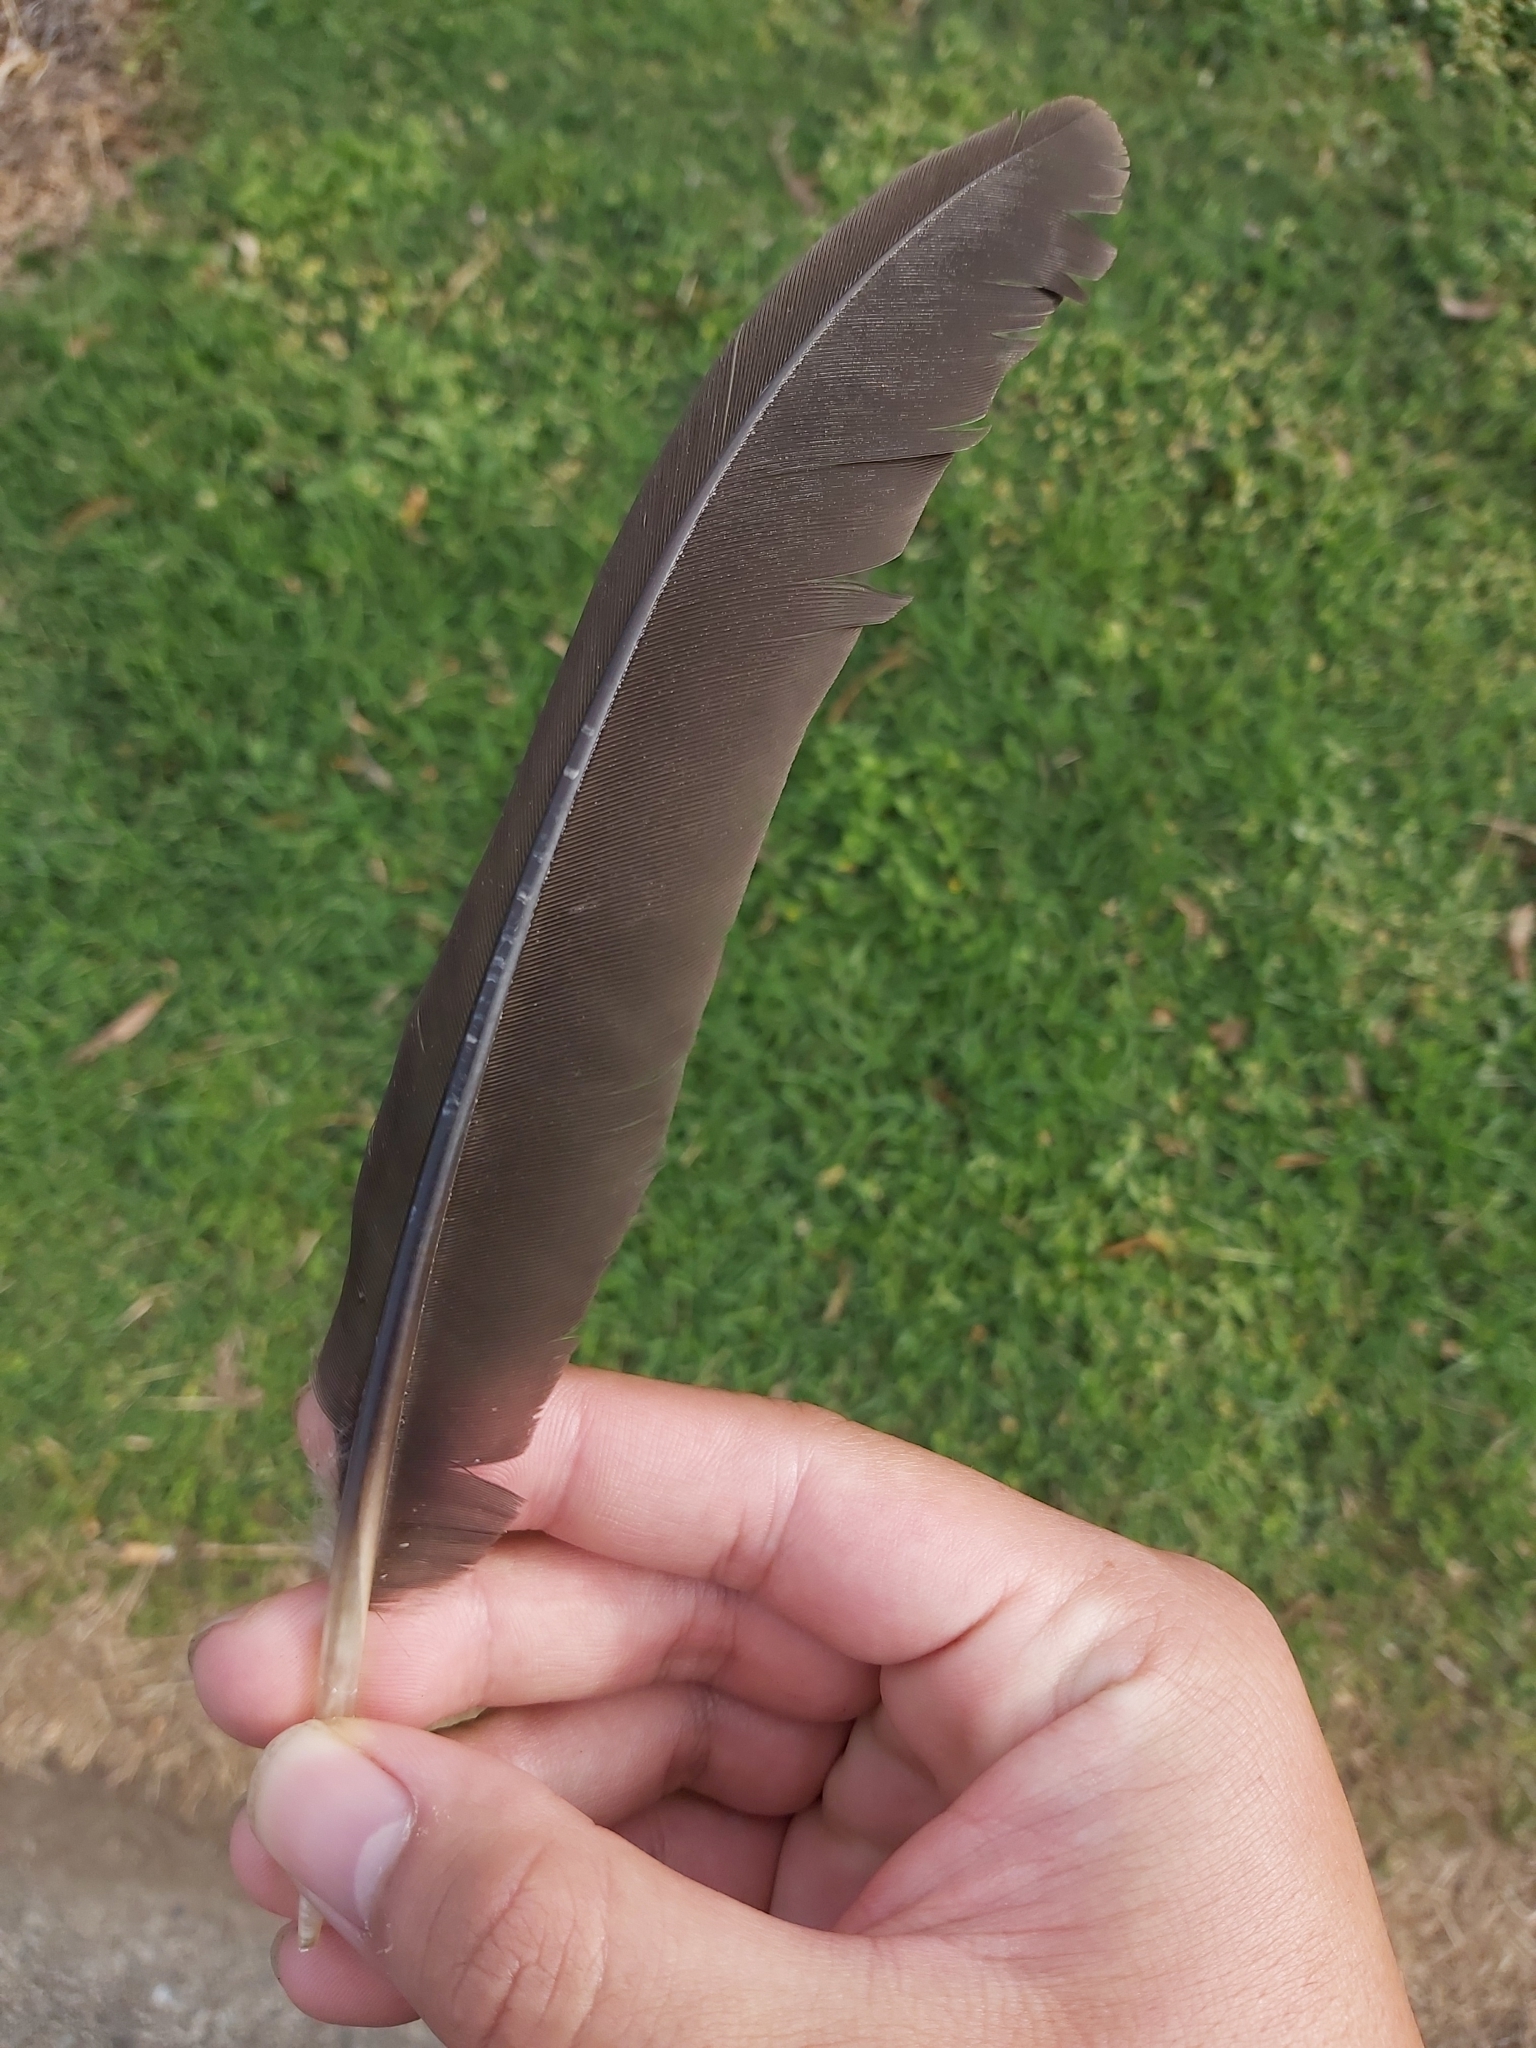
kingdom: Animalia
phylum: Chordata
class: Aves
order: Galliformes
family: Megapodiidae
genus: Alectura
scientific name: Alectura lathami
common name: Australian brushturkey
